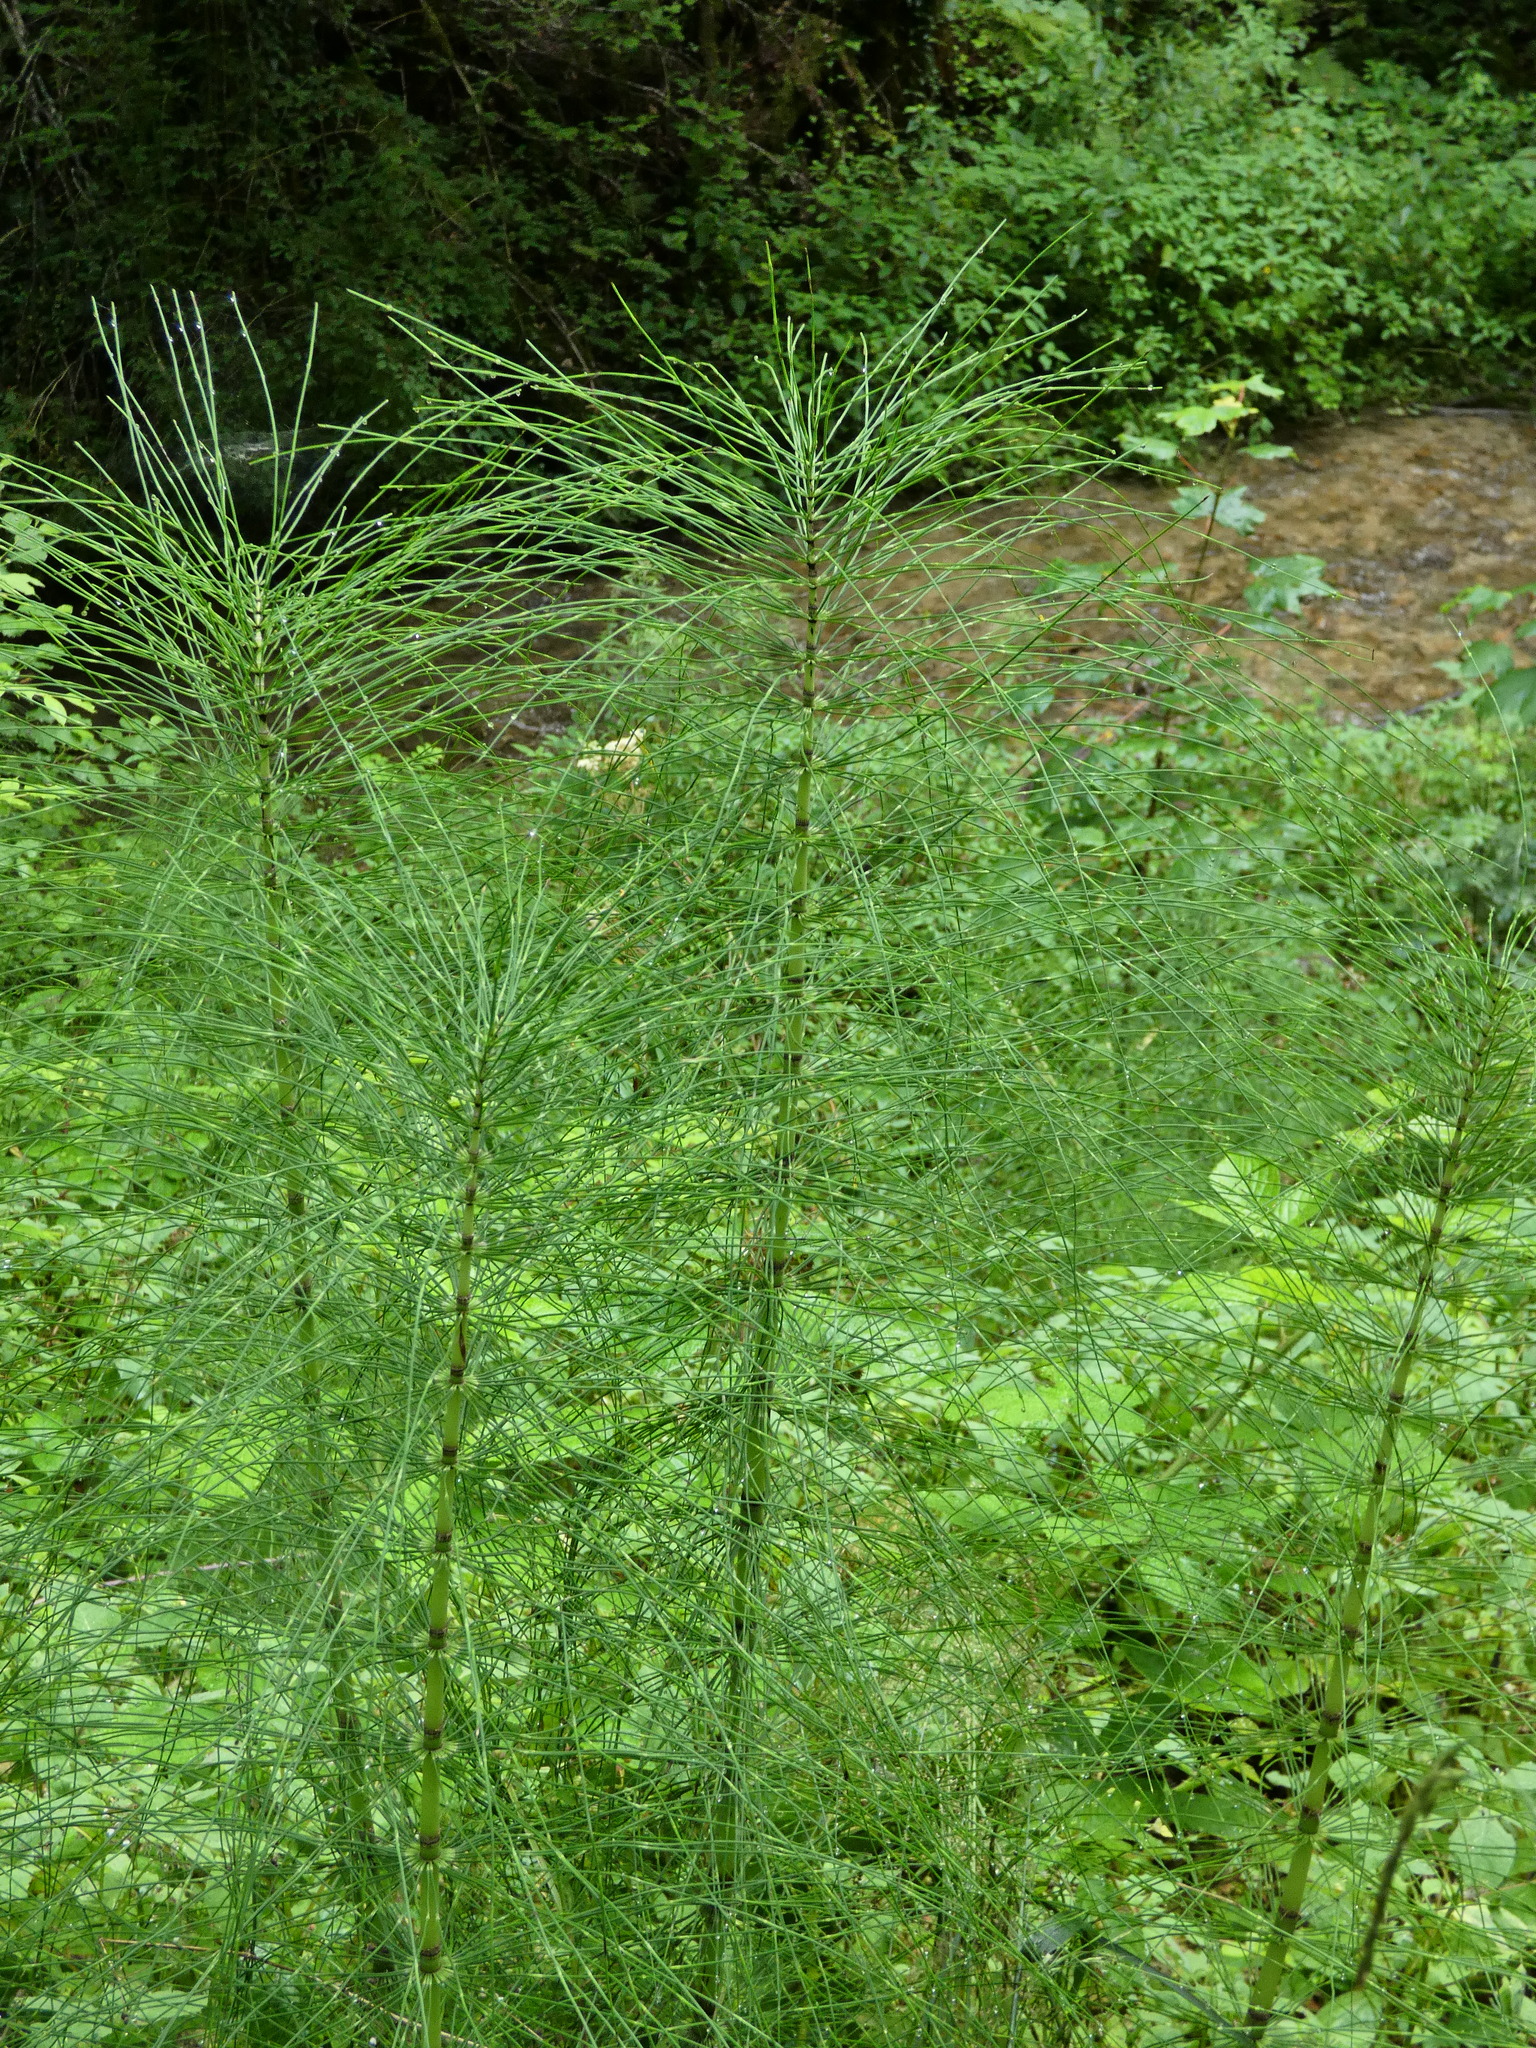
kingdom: Plantae
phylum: Tracheophyta
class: Polypodiopsida
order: Equisetales
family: Equisetaceae
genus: Equisetum
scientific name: Equisetum telmateia
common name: Great horsetail
